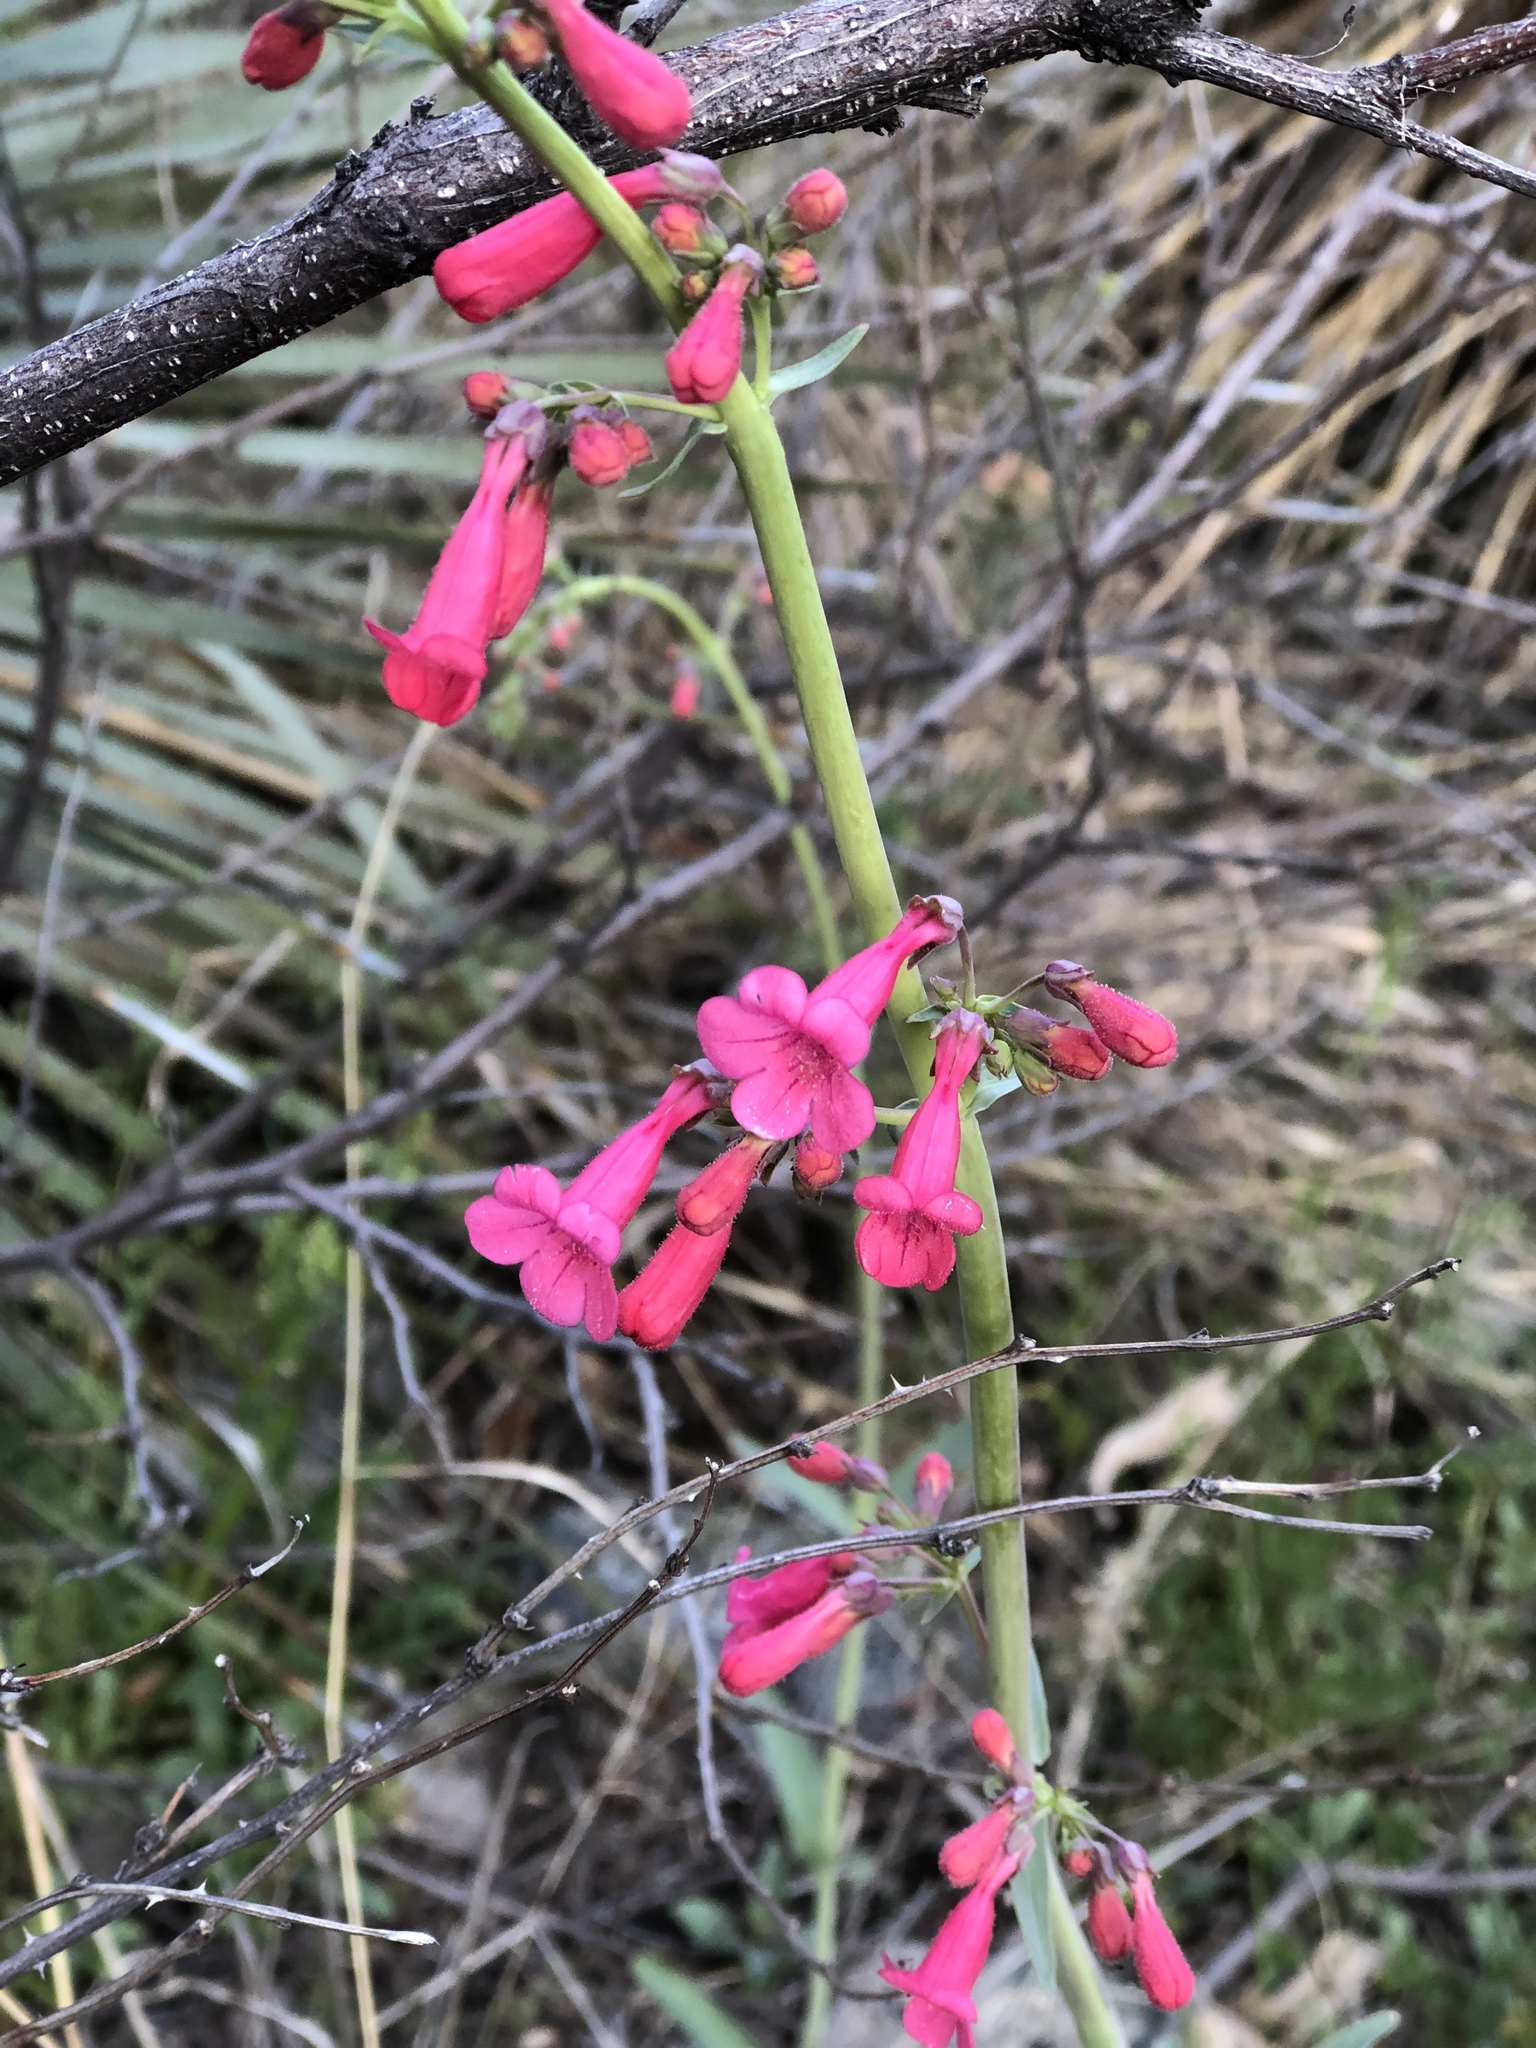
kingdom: Plantae
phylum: Tracheophyta
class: Magnoliopsida
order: Lamiales
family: Plantaginaceae
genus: Penstemon
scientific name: Penstemon parryi
